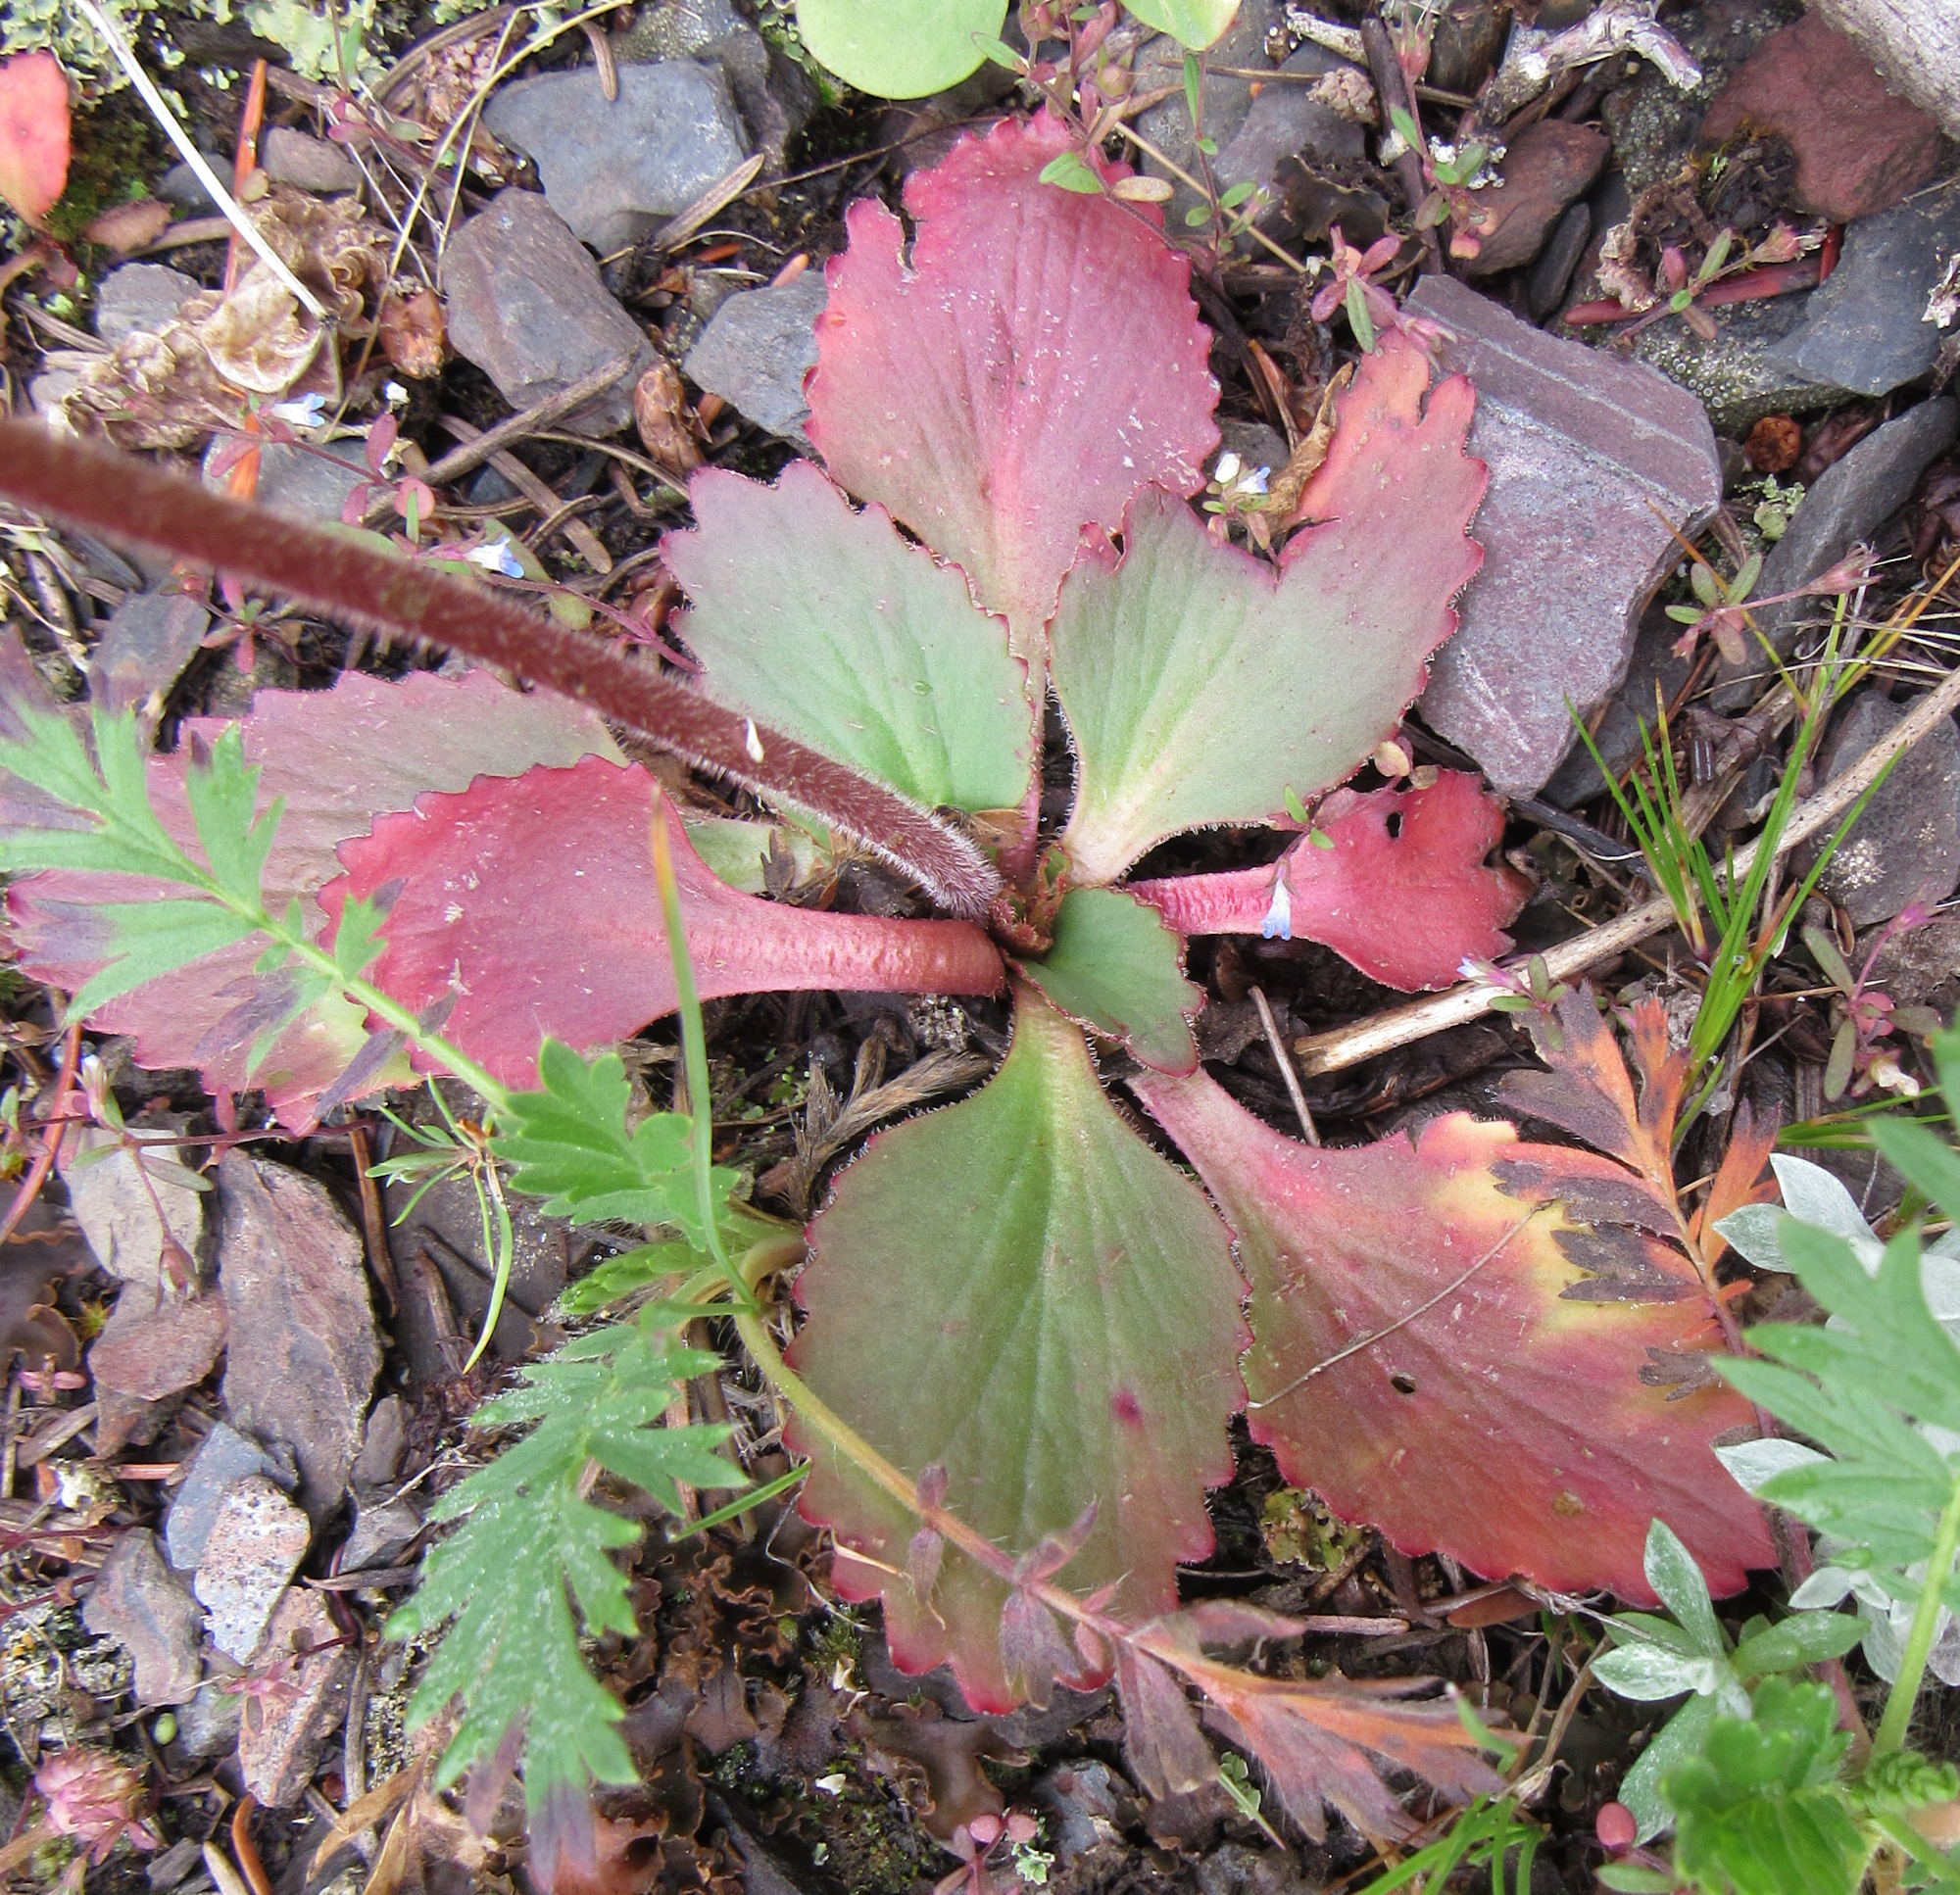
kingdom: Plantae
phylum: Tracheophyta
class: Magnoliopsida
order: Rosales
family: Rosaceae
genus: Geum
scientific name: Geum triflorum
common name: Old man's whiskers
